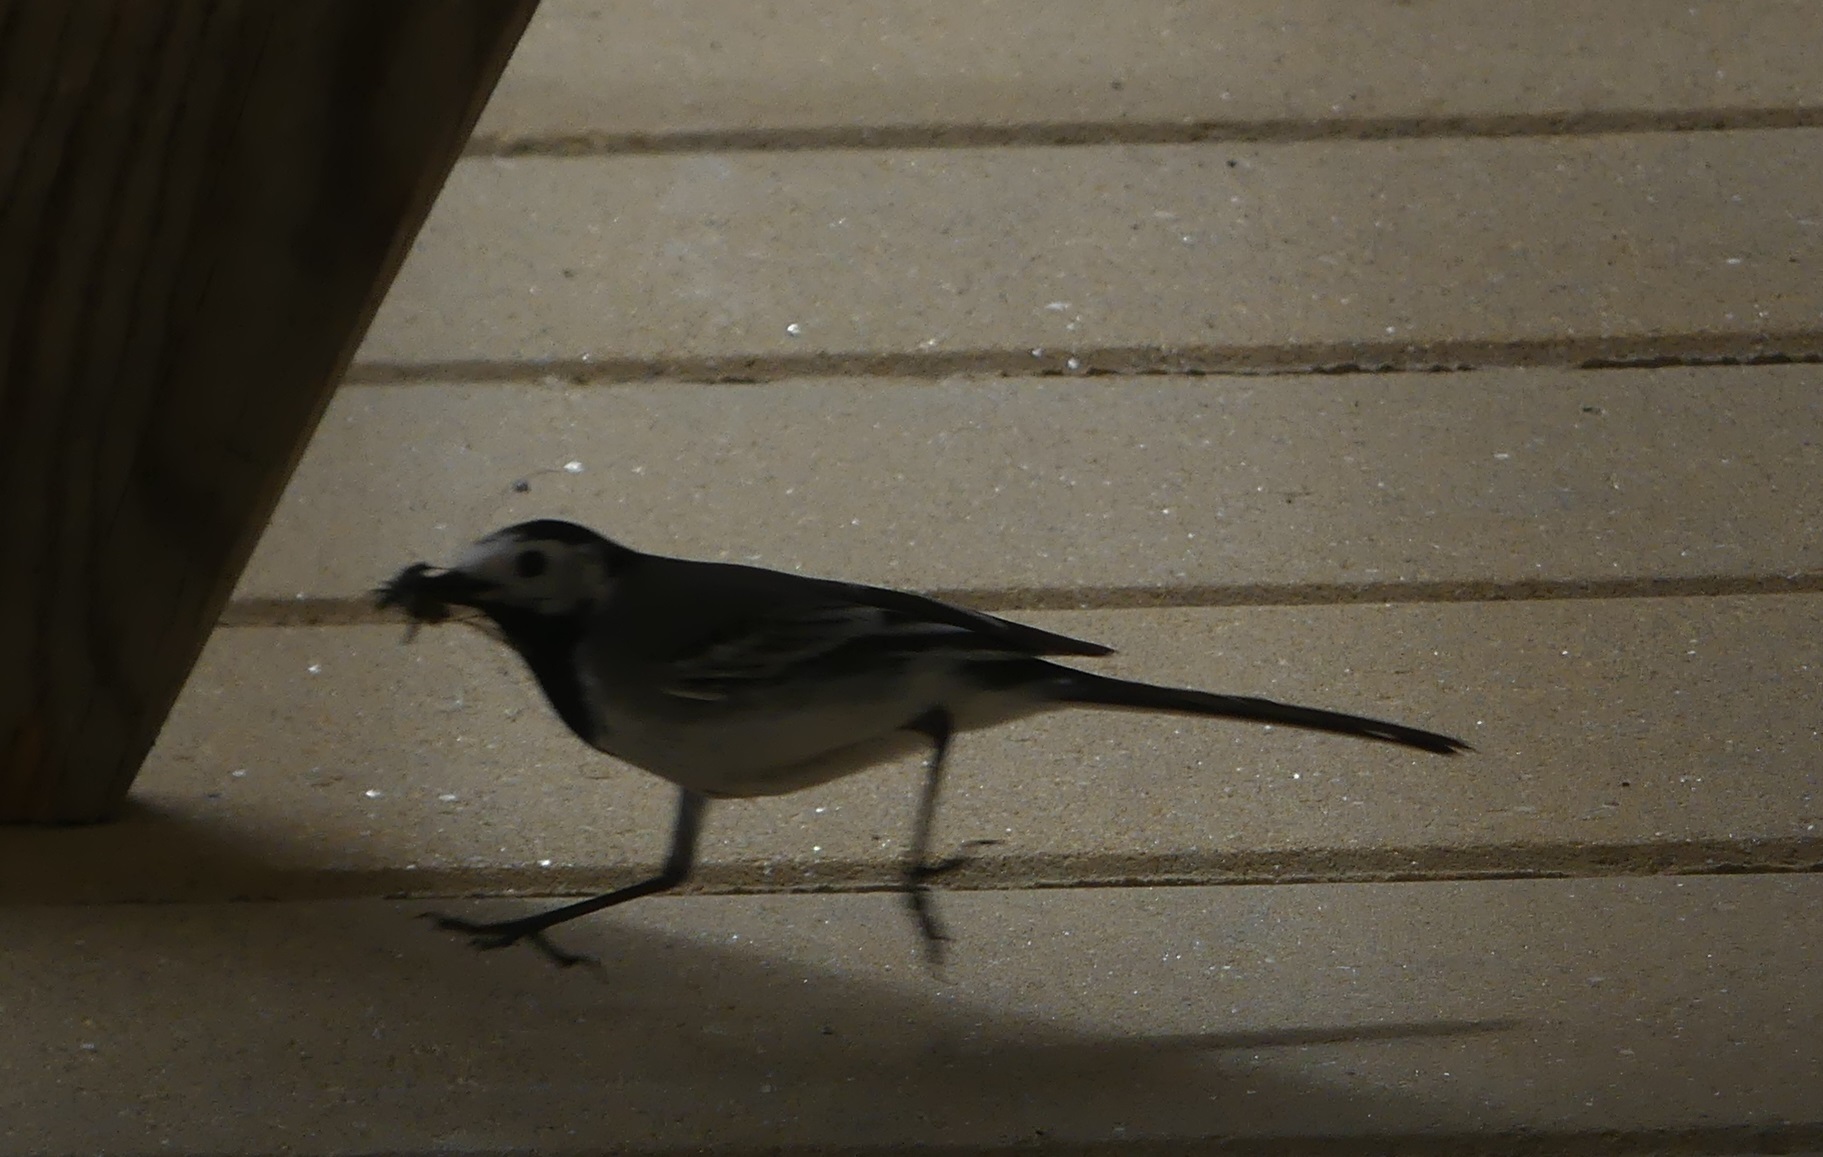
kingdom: Animalia
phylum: Chordata
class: Aves
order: Passeriformes
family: Motacillidae
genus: Motacilla
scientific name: Motacilla alba
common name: White wagtail
